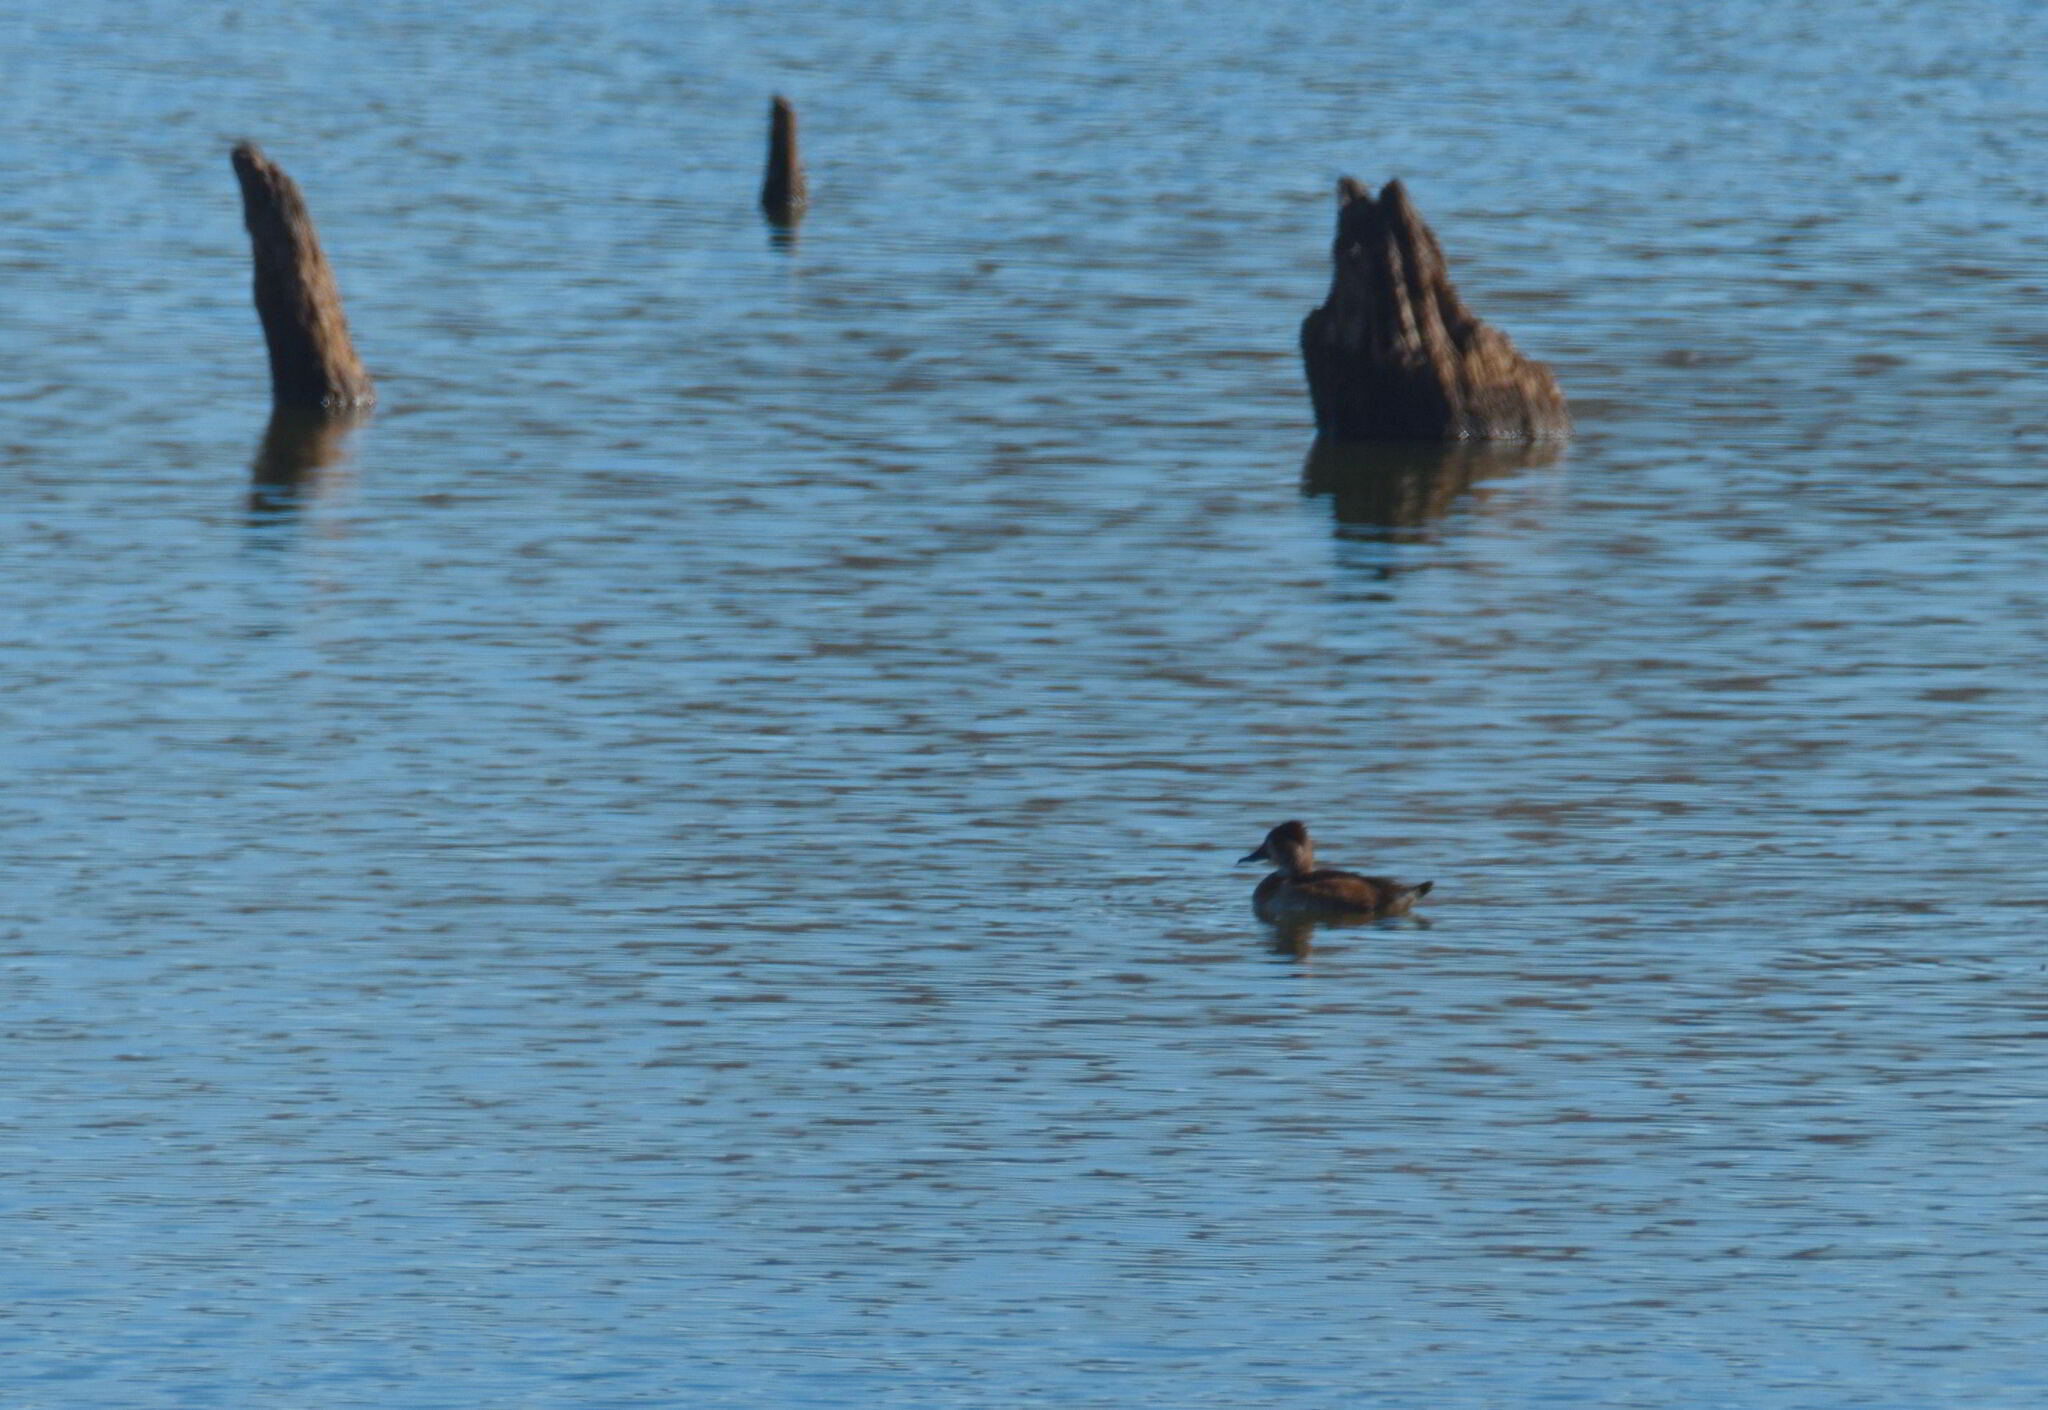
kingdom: Animalia
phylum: Chordata
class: Aves
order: Anseriformes
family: Anatidae
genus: Aythya
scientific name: Aythya collaris
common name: Ring-necked duck
